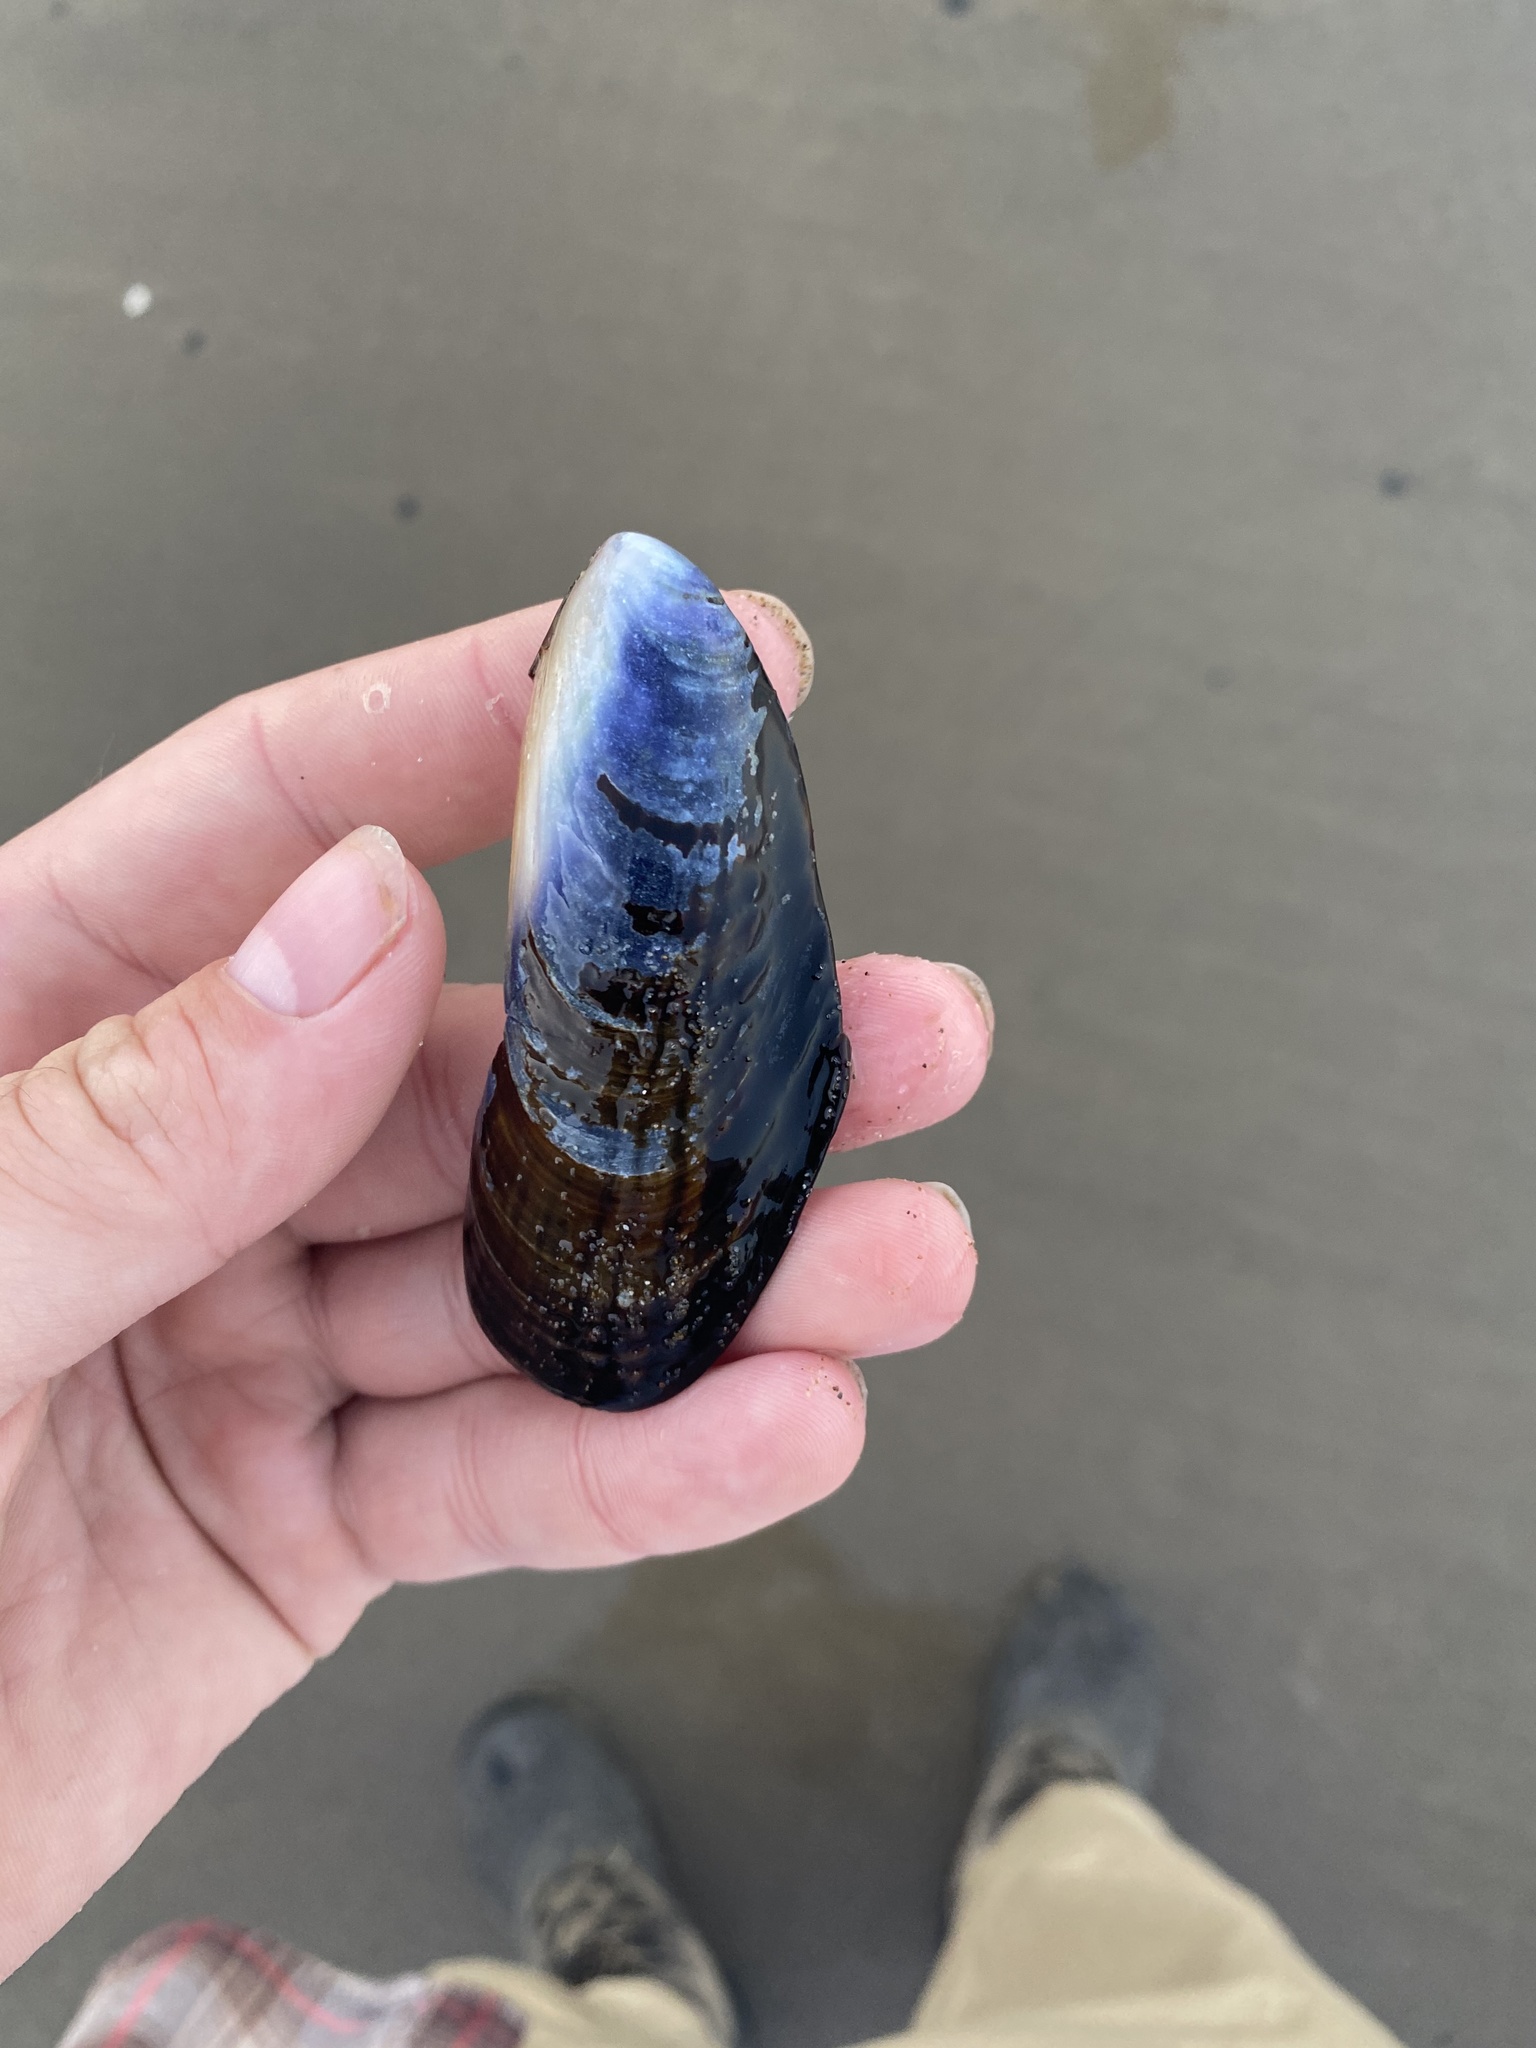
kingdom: Animalia
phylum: Mollusca
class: Bivalvia
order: Mytilida
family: Mytilidae
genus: Mytilus
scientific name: Mytilus californianus
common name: California mussel
